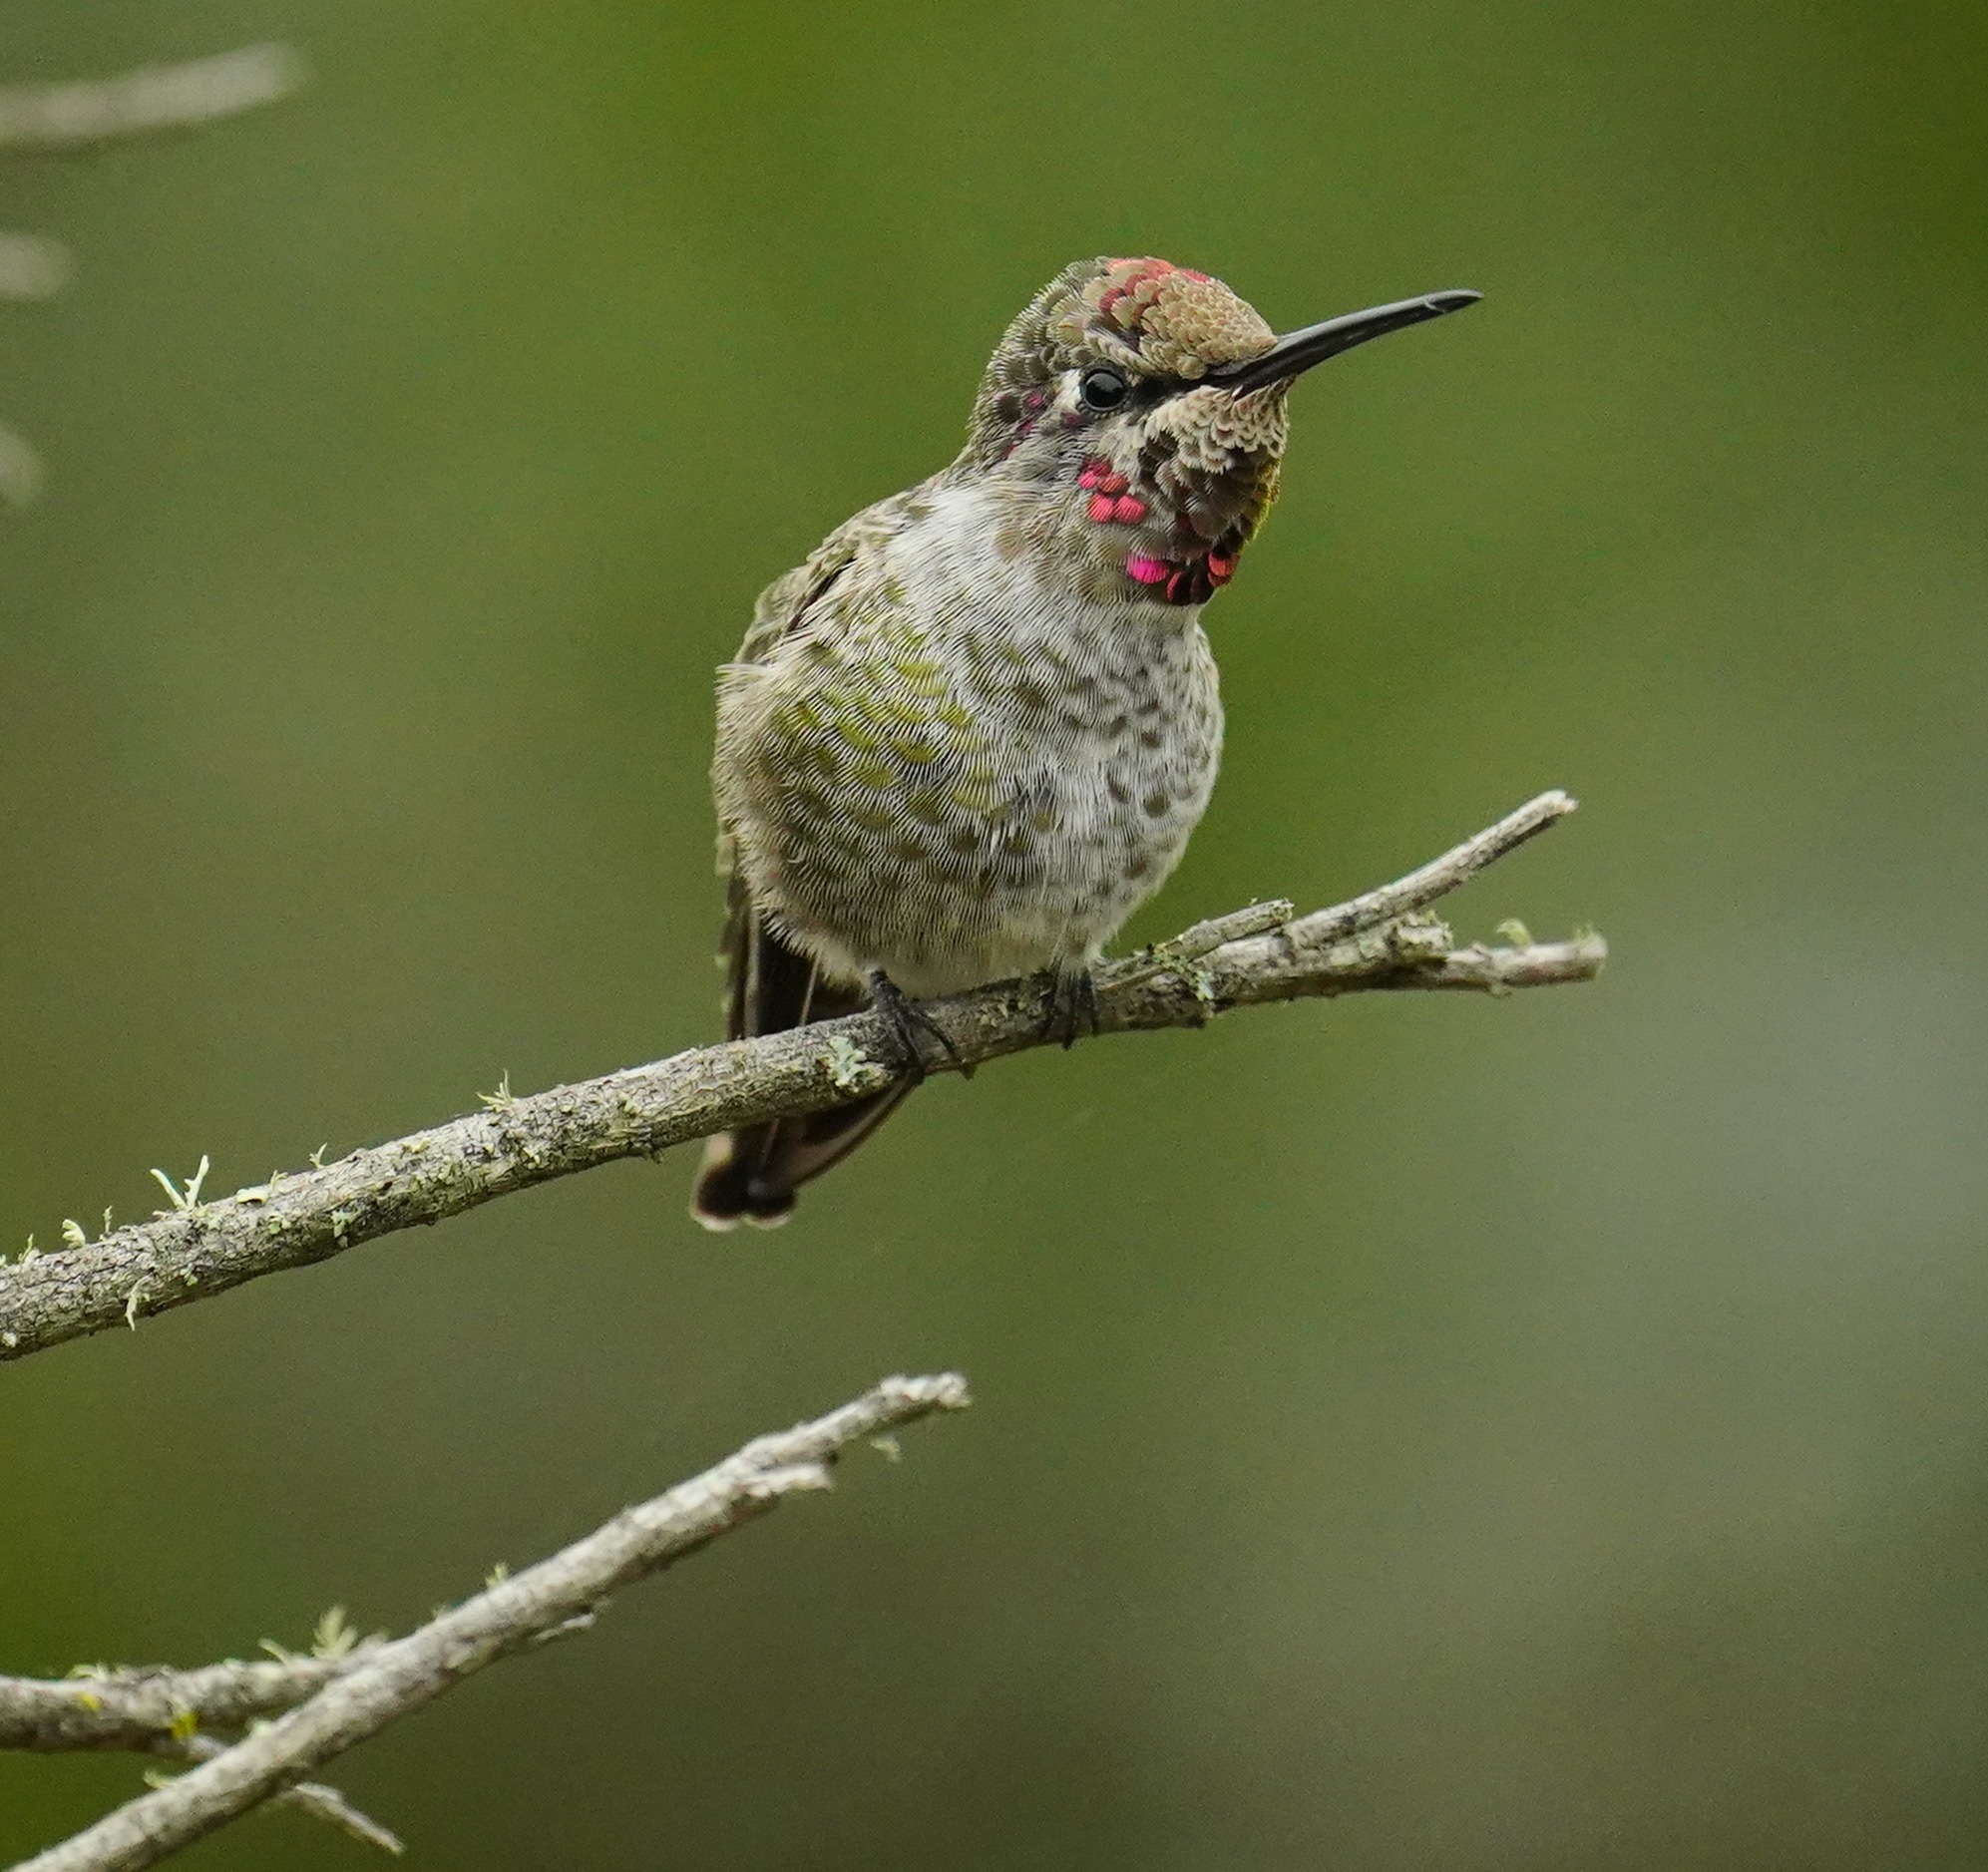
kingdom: Animalia
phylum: Chordata
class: Aves
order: Apodiformes
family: Trochilidae
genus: Calypte
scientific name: Calypte anna
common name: Anna's hummingbird
